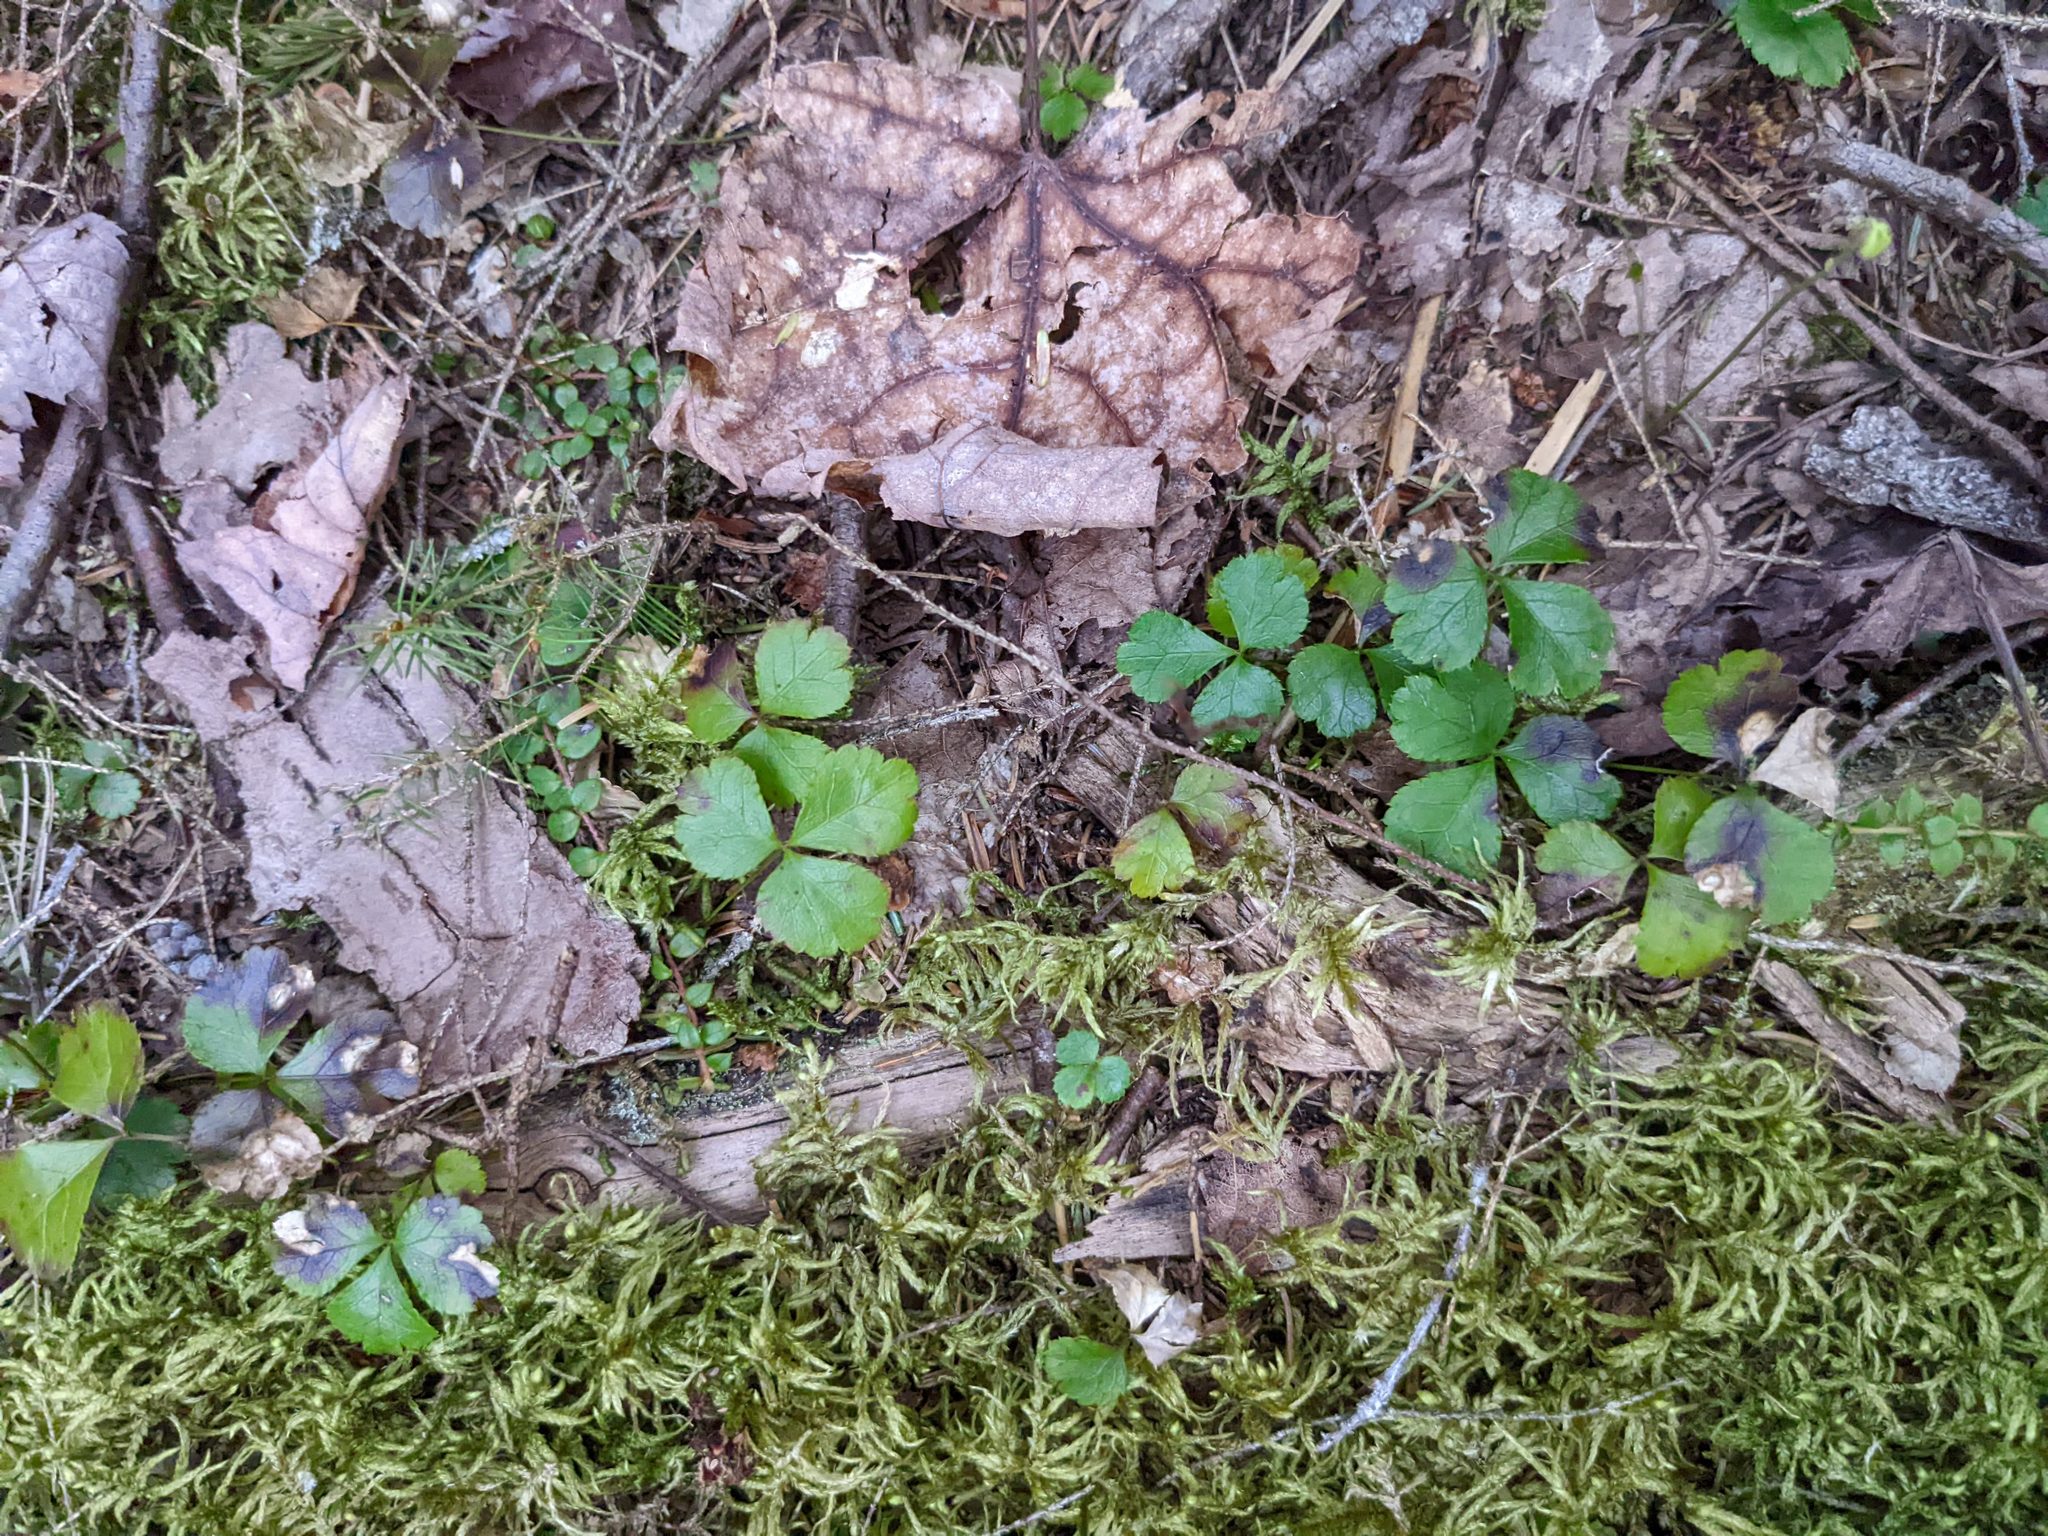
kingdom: Plantae
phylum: Tracheophyta
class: Magnoliopsida
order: Ranunculales
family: Ranunculaceae
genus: Coptis
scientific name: Coptis trifolia
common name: Canker-root
